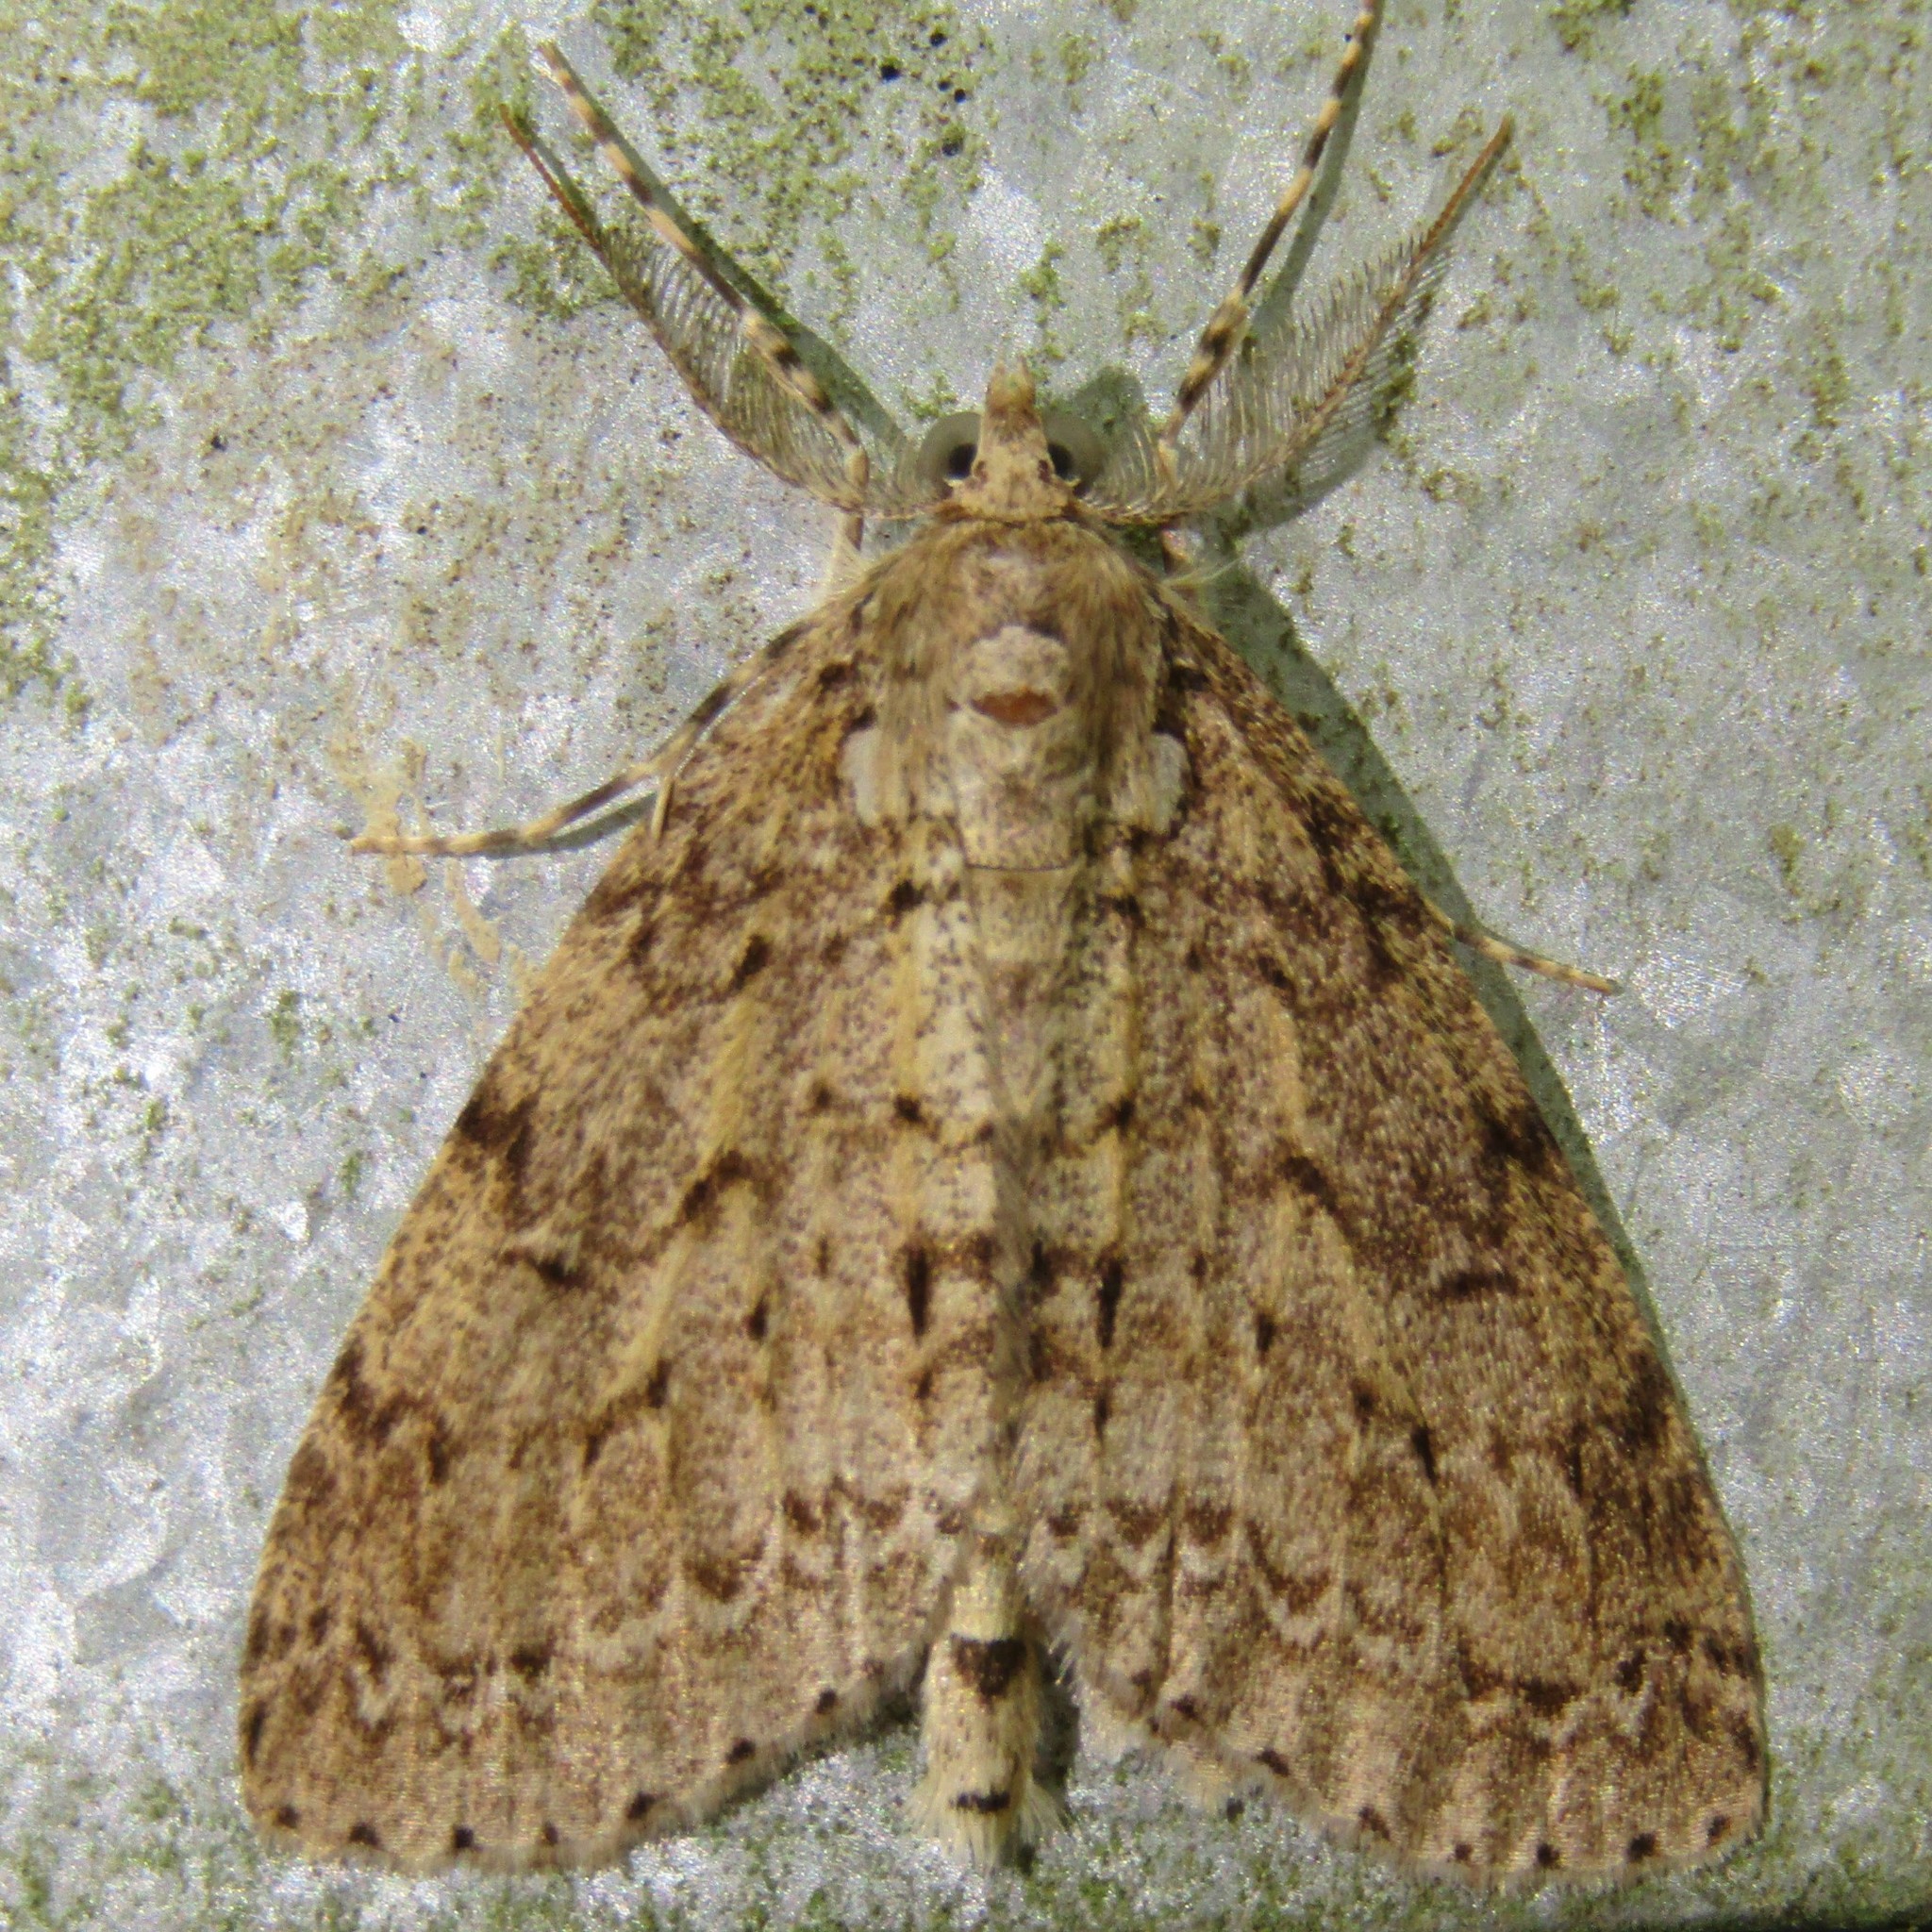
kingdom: Animalia
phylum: Arthropoda
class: Insecta
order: Lepidoptera
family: Geometridae
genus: Pseudocoremia
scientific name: Pseudocoremia fenerata
